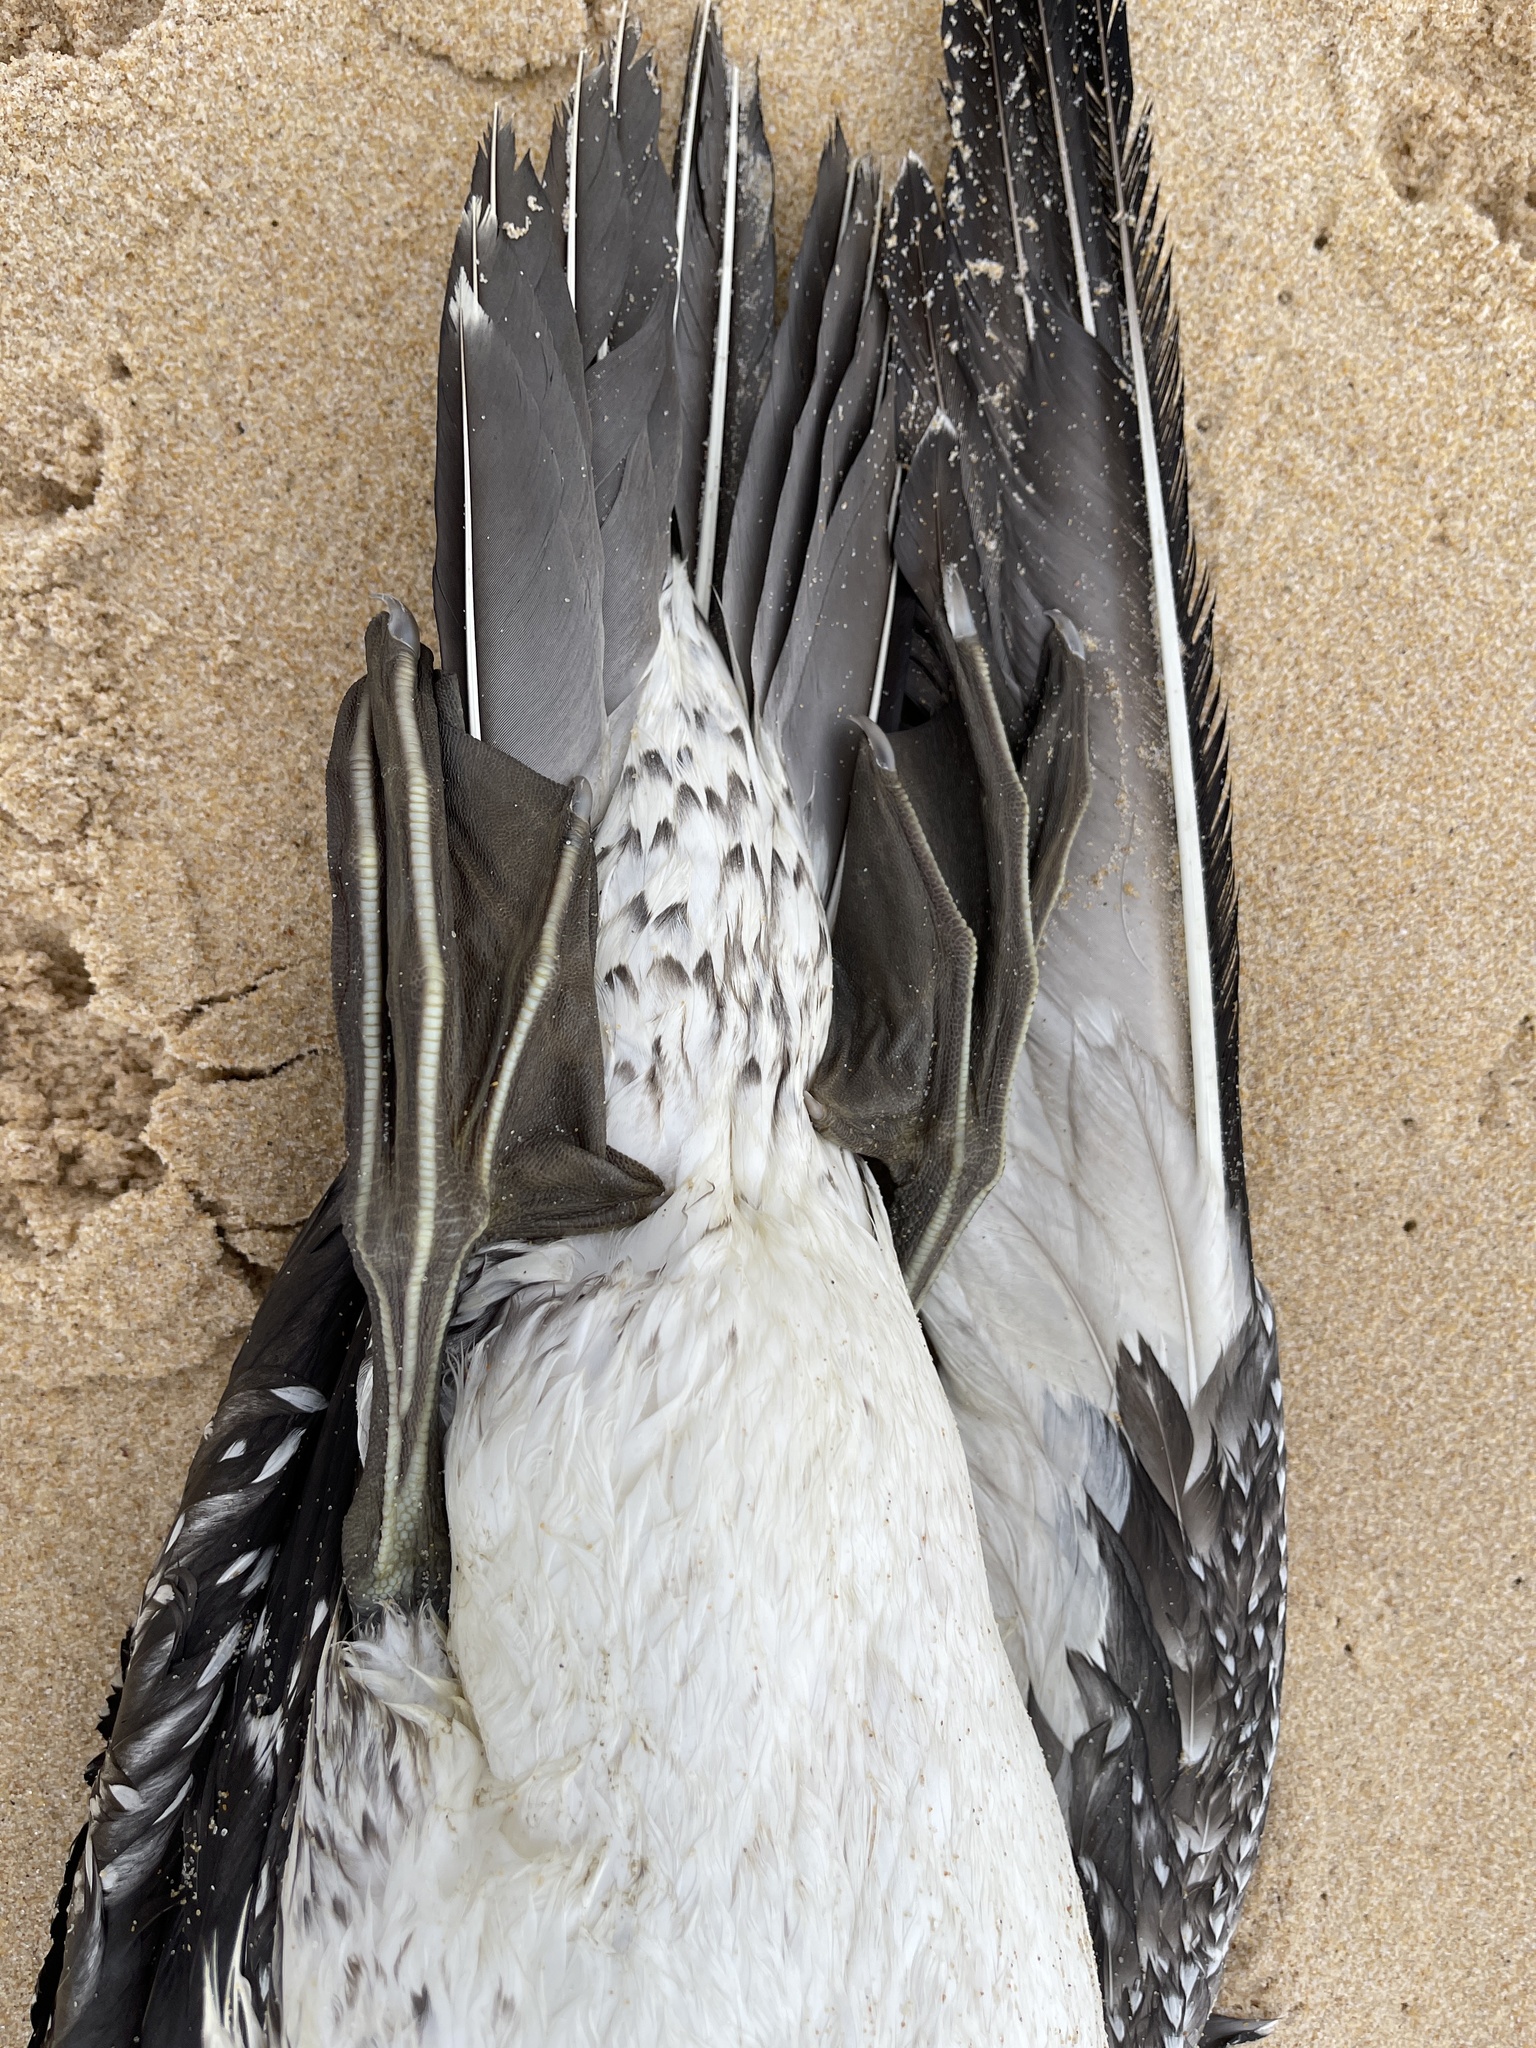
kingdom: Animalia
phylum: Chordata
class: Aves
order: Suliformes
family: Sulidae
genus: Morus
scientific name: Morus serrator
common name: Australasian gannet
